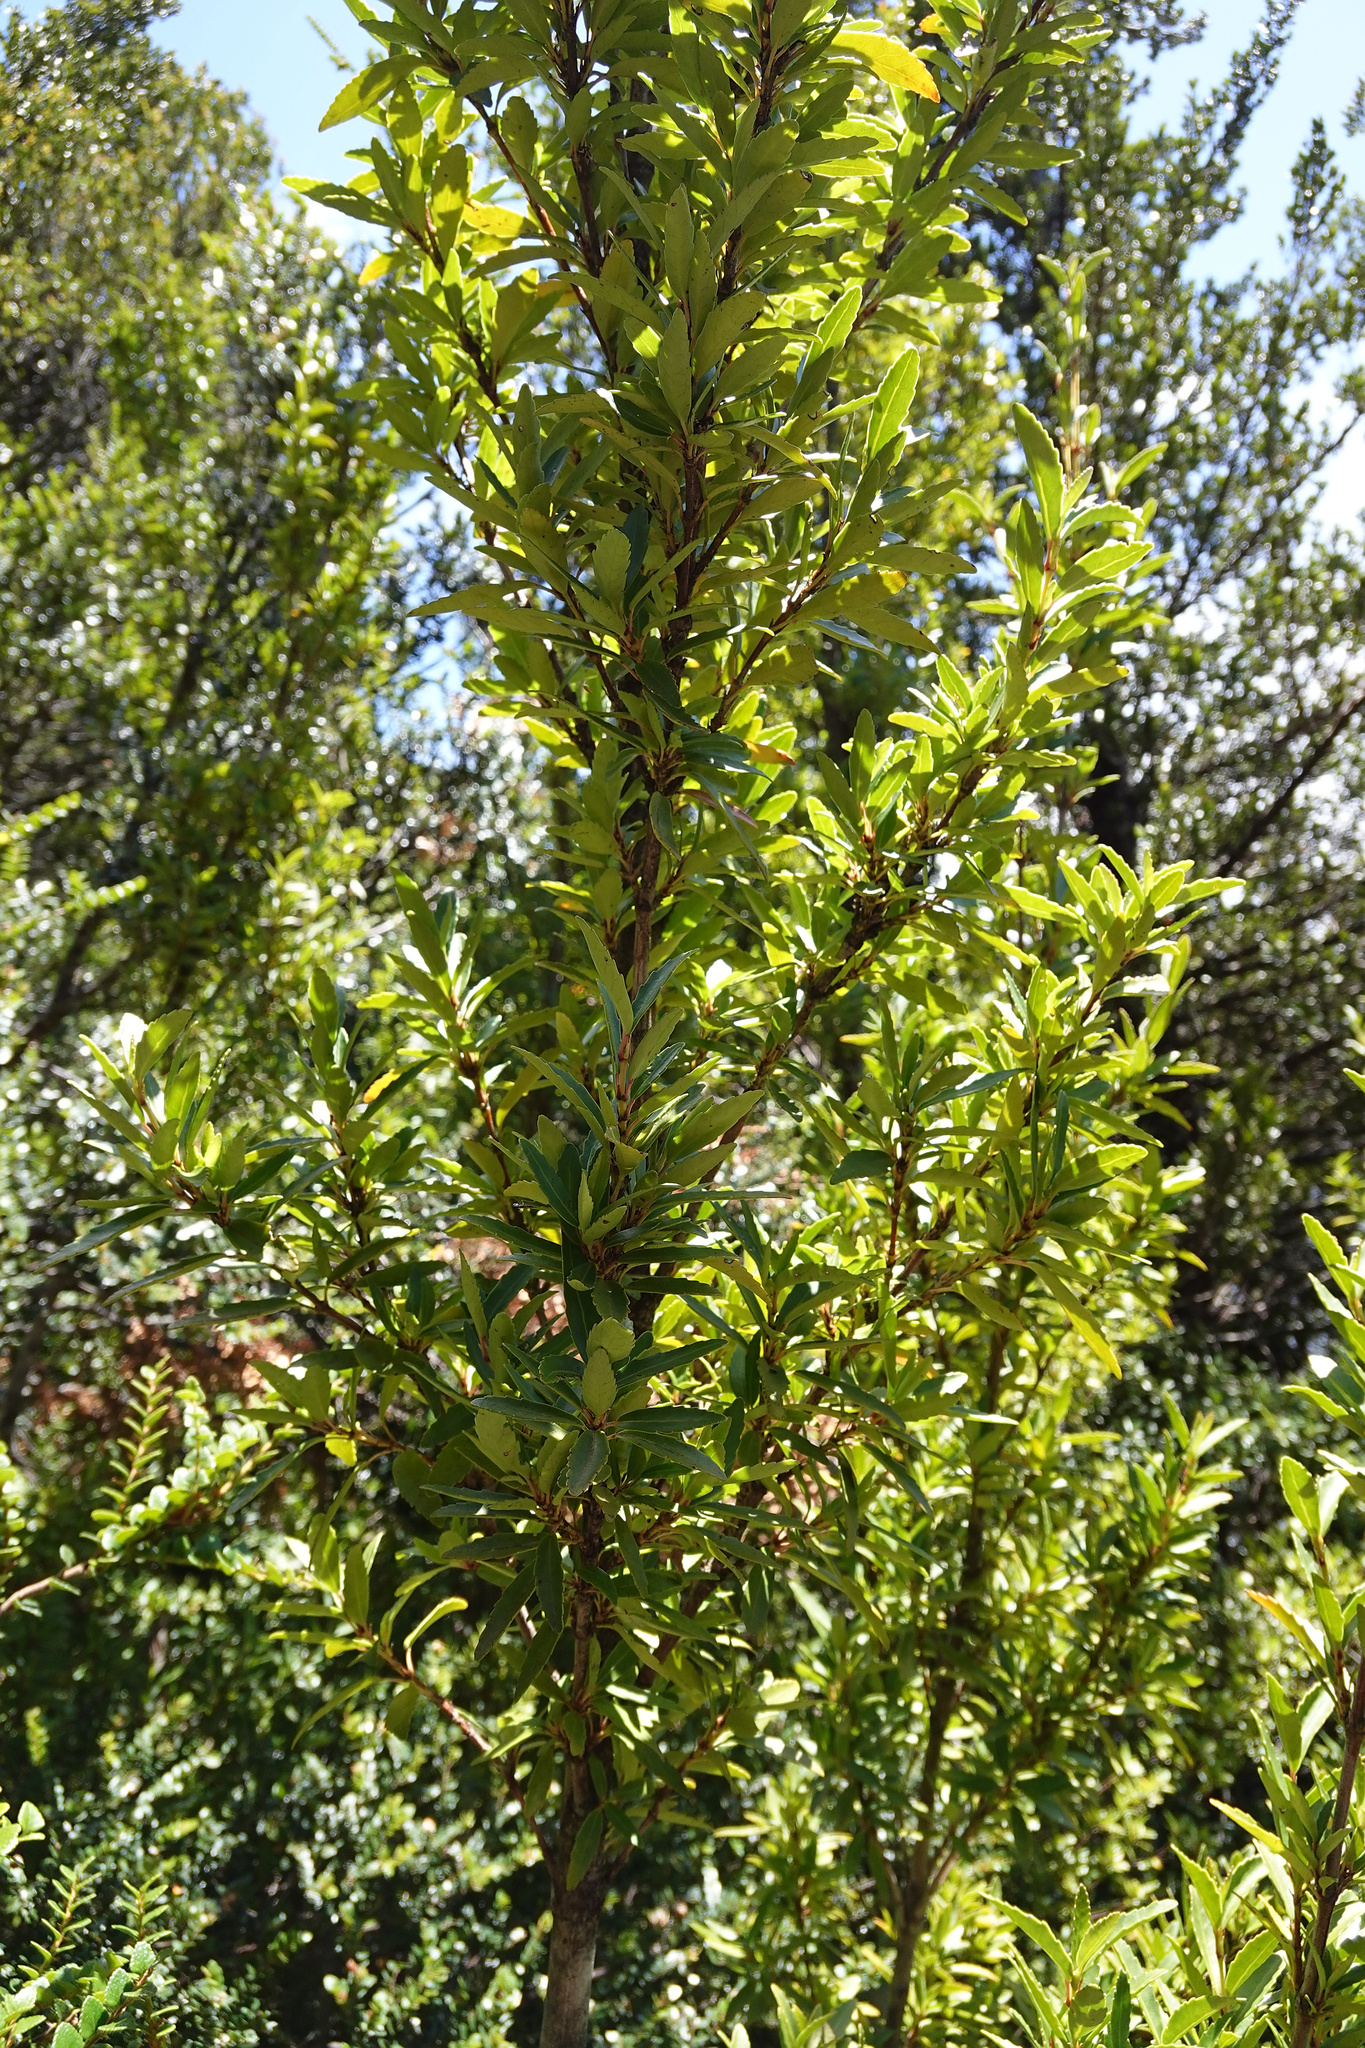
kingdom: Plantae
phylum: Tracheophyta
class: Magnoliopsida
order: Oxalidales
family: Cunoniaceae
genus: Anodopetalum
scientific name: Anodopetalum biglandulosum
